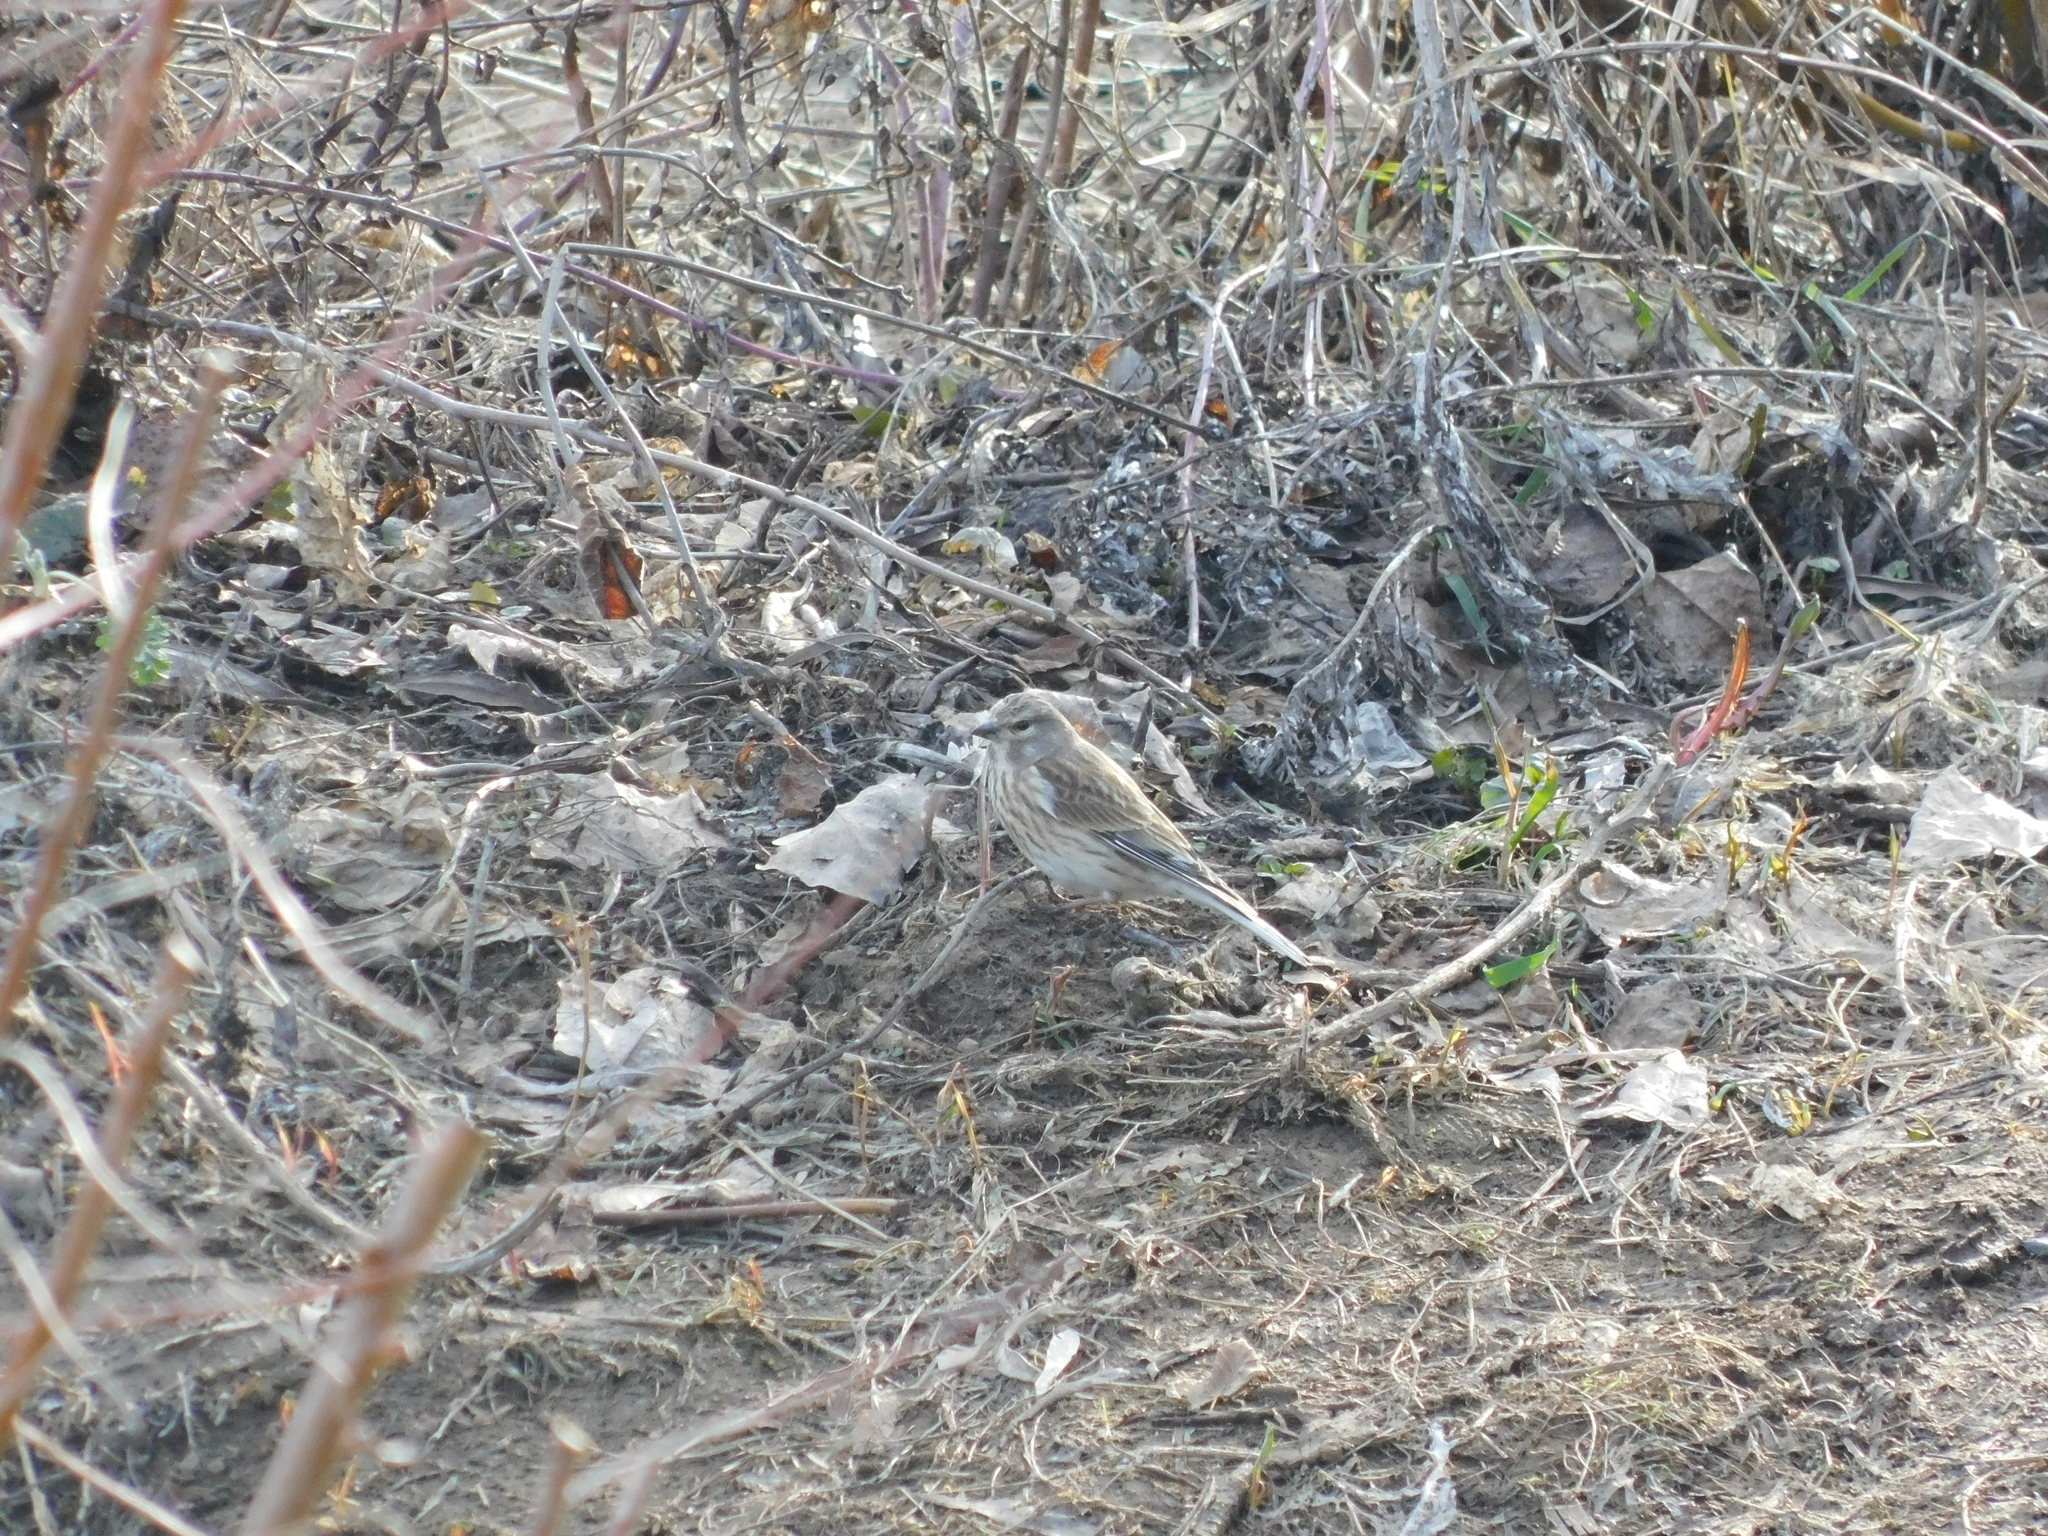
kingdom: Animalia
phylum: Chordata
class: Aves
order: Passeriformes
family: Fringillidae
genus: Linaria
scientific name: Linaria cannabina
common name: Common linnet
